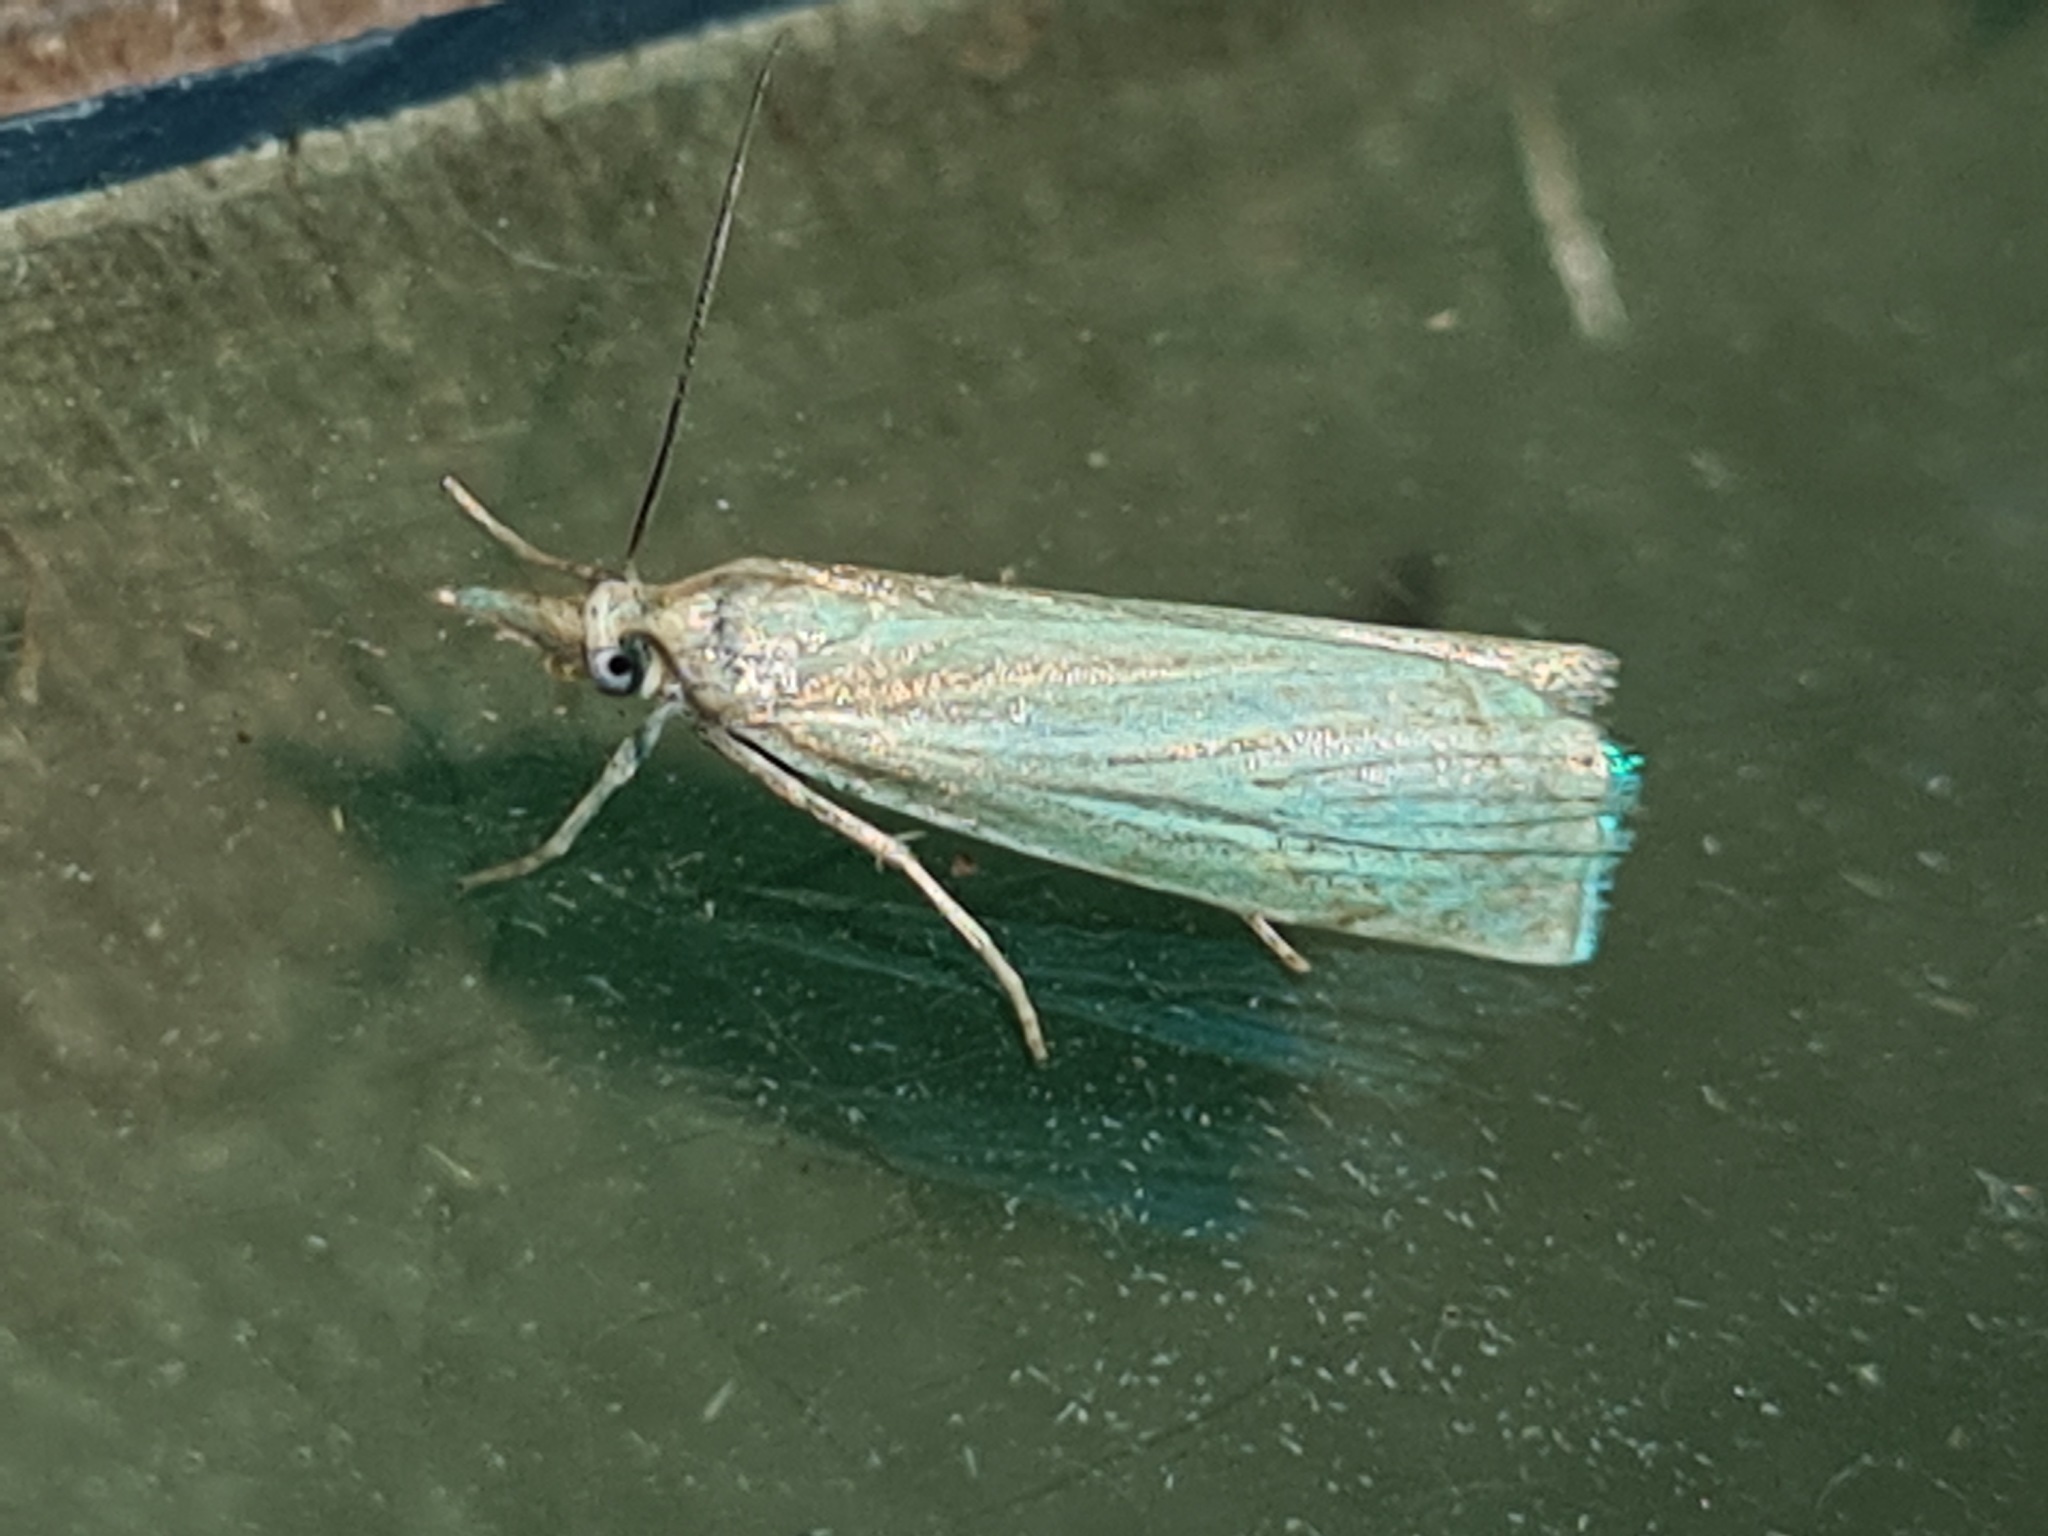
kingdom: Animalia
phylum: Arthropoda
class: Insecta
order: Lepidoptera
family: Crambidae
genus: Chrysoteuchia
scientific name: Chrysoteuchia culmella
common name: Garden grass-veneer
